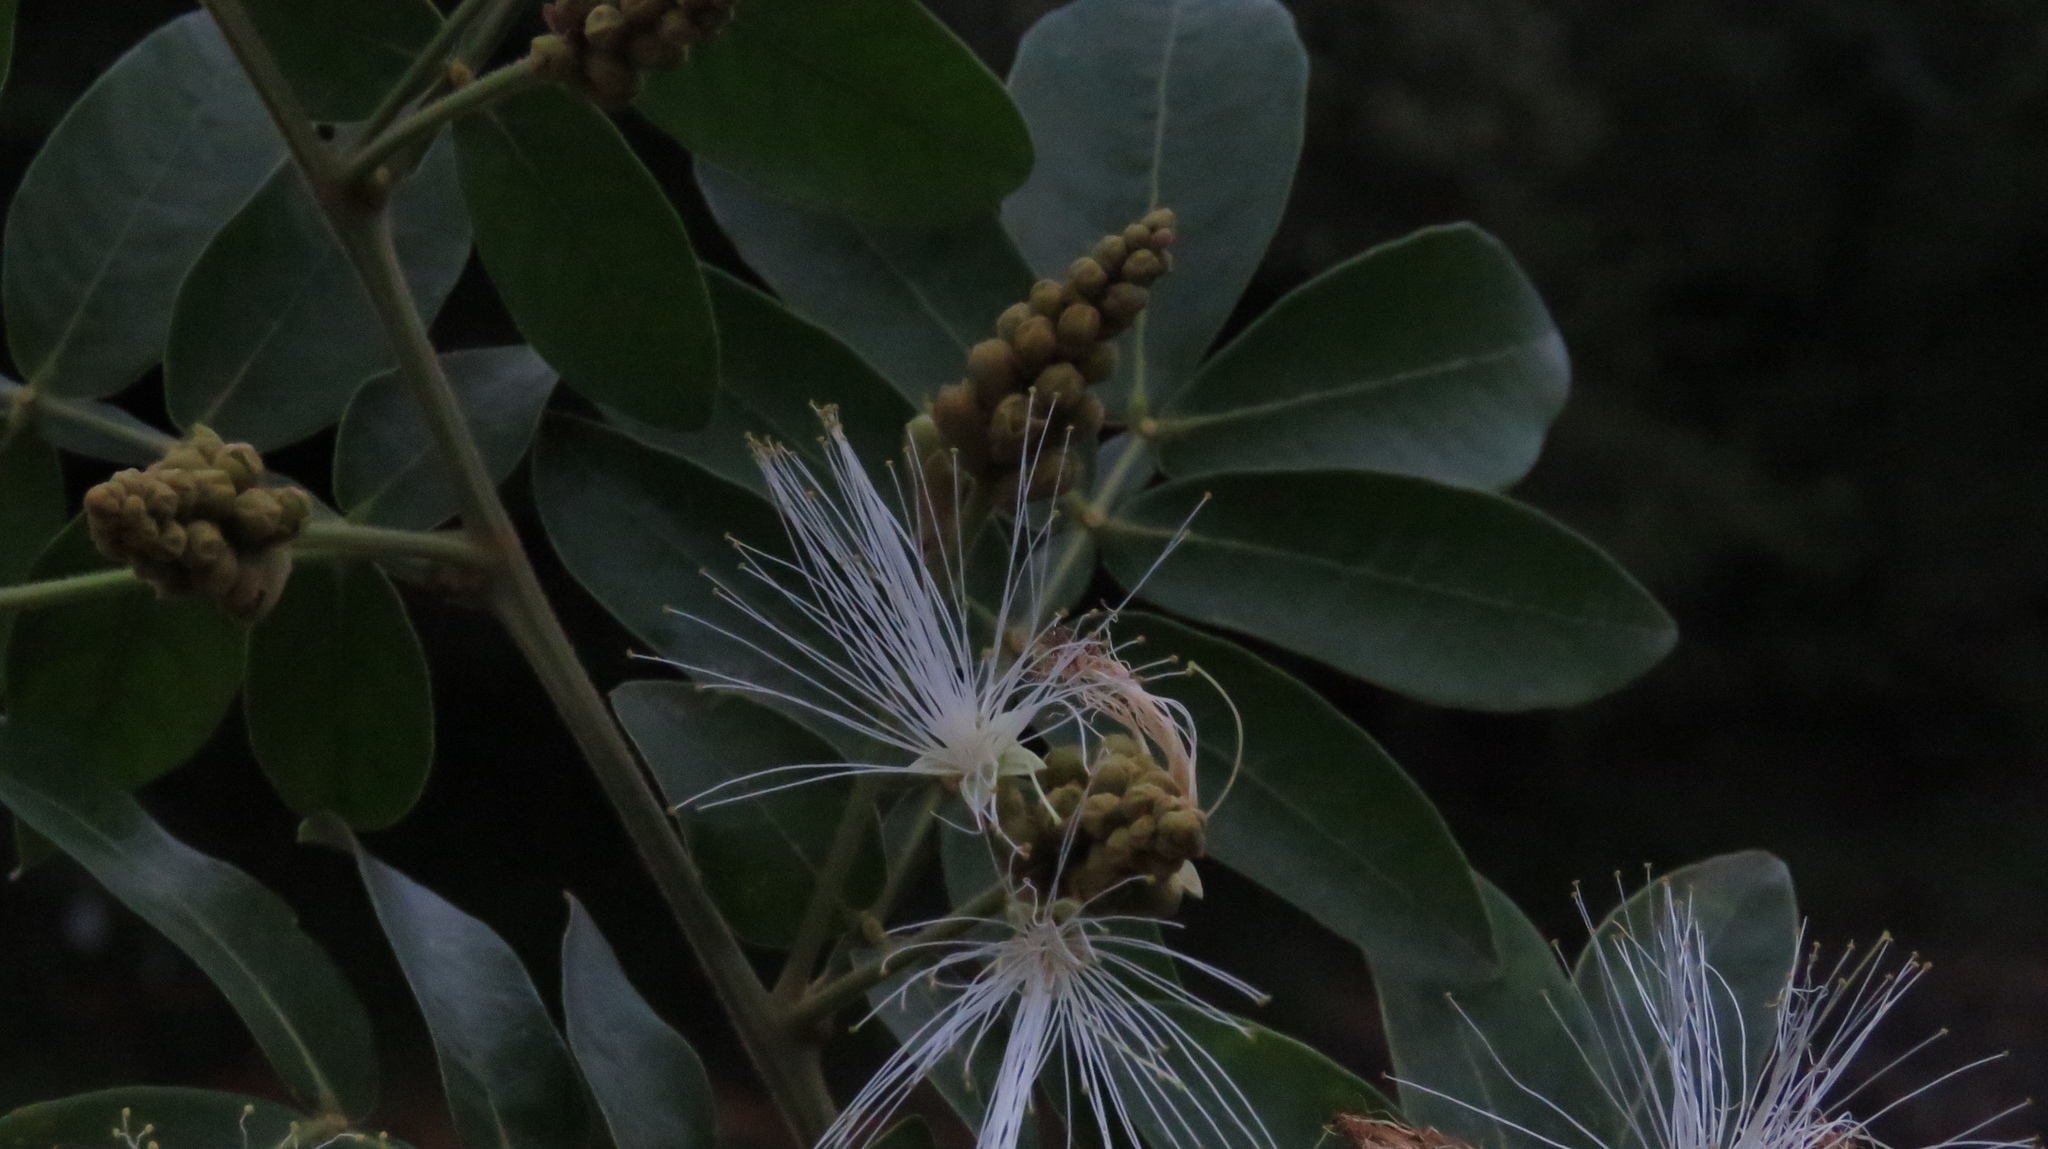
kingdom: Plantae
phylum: Tracheophyta
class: Magnoliopsida
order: Fabales
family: Fabaceae
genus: Inga
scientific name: Inga uraguensis
